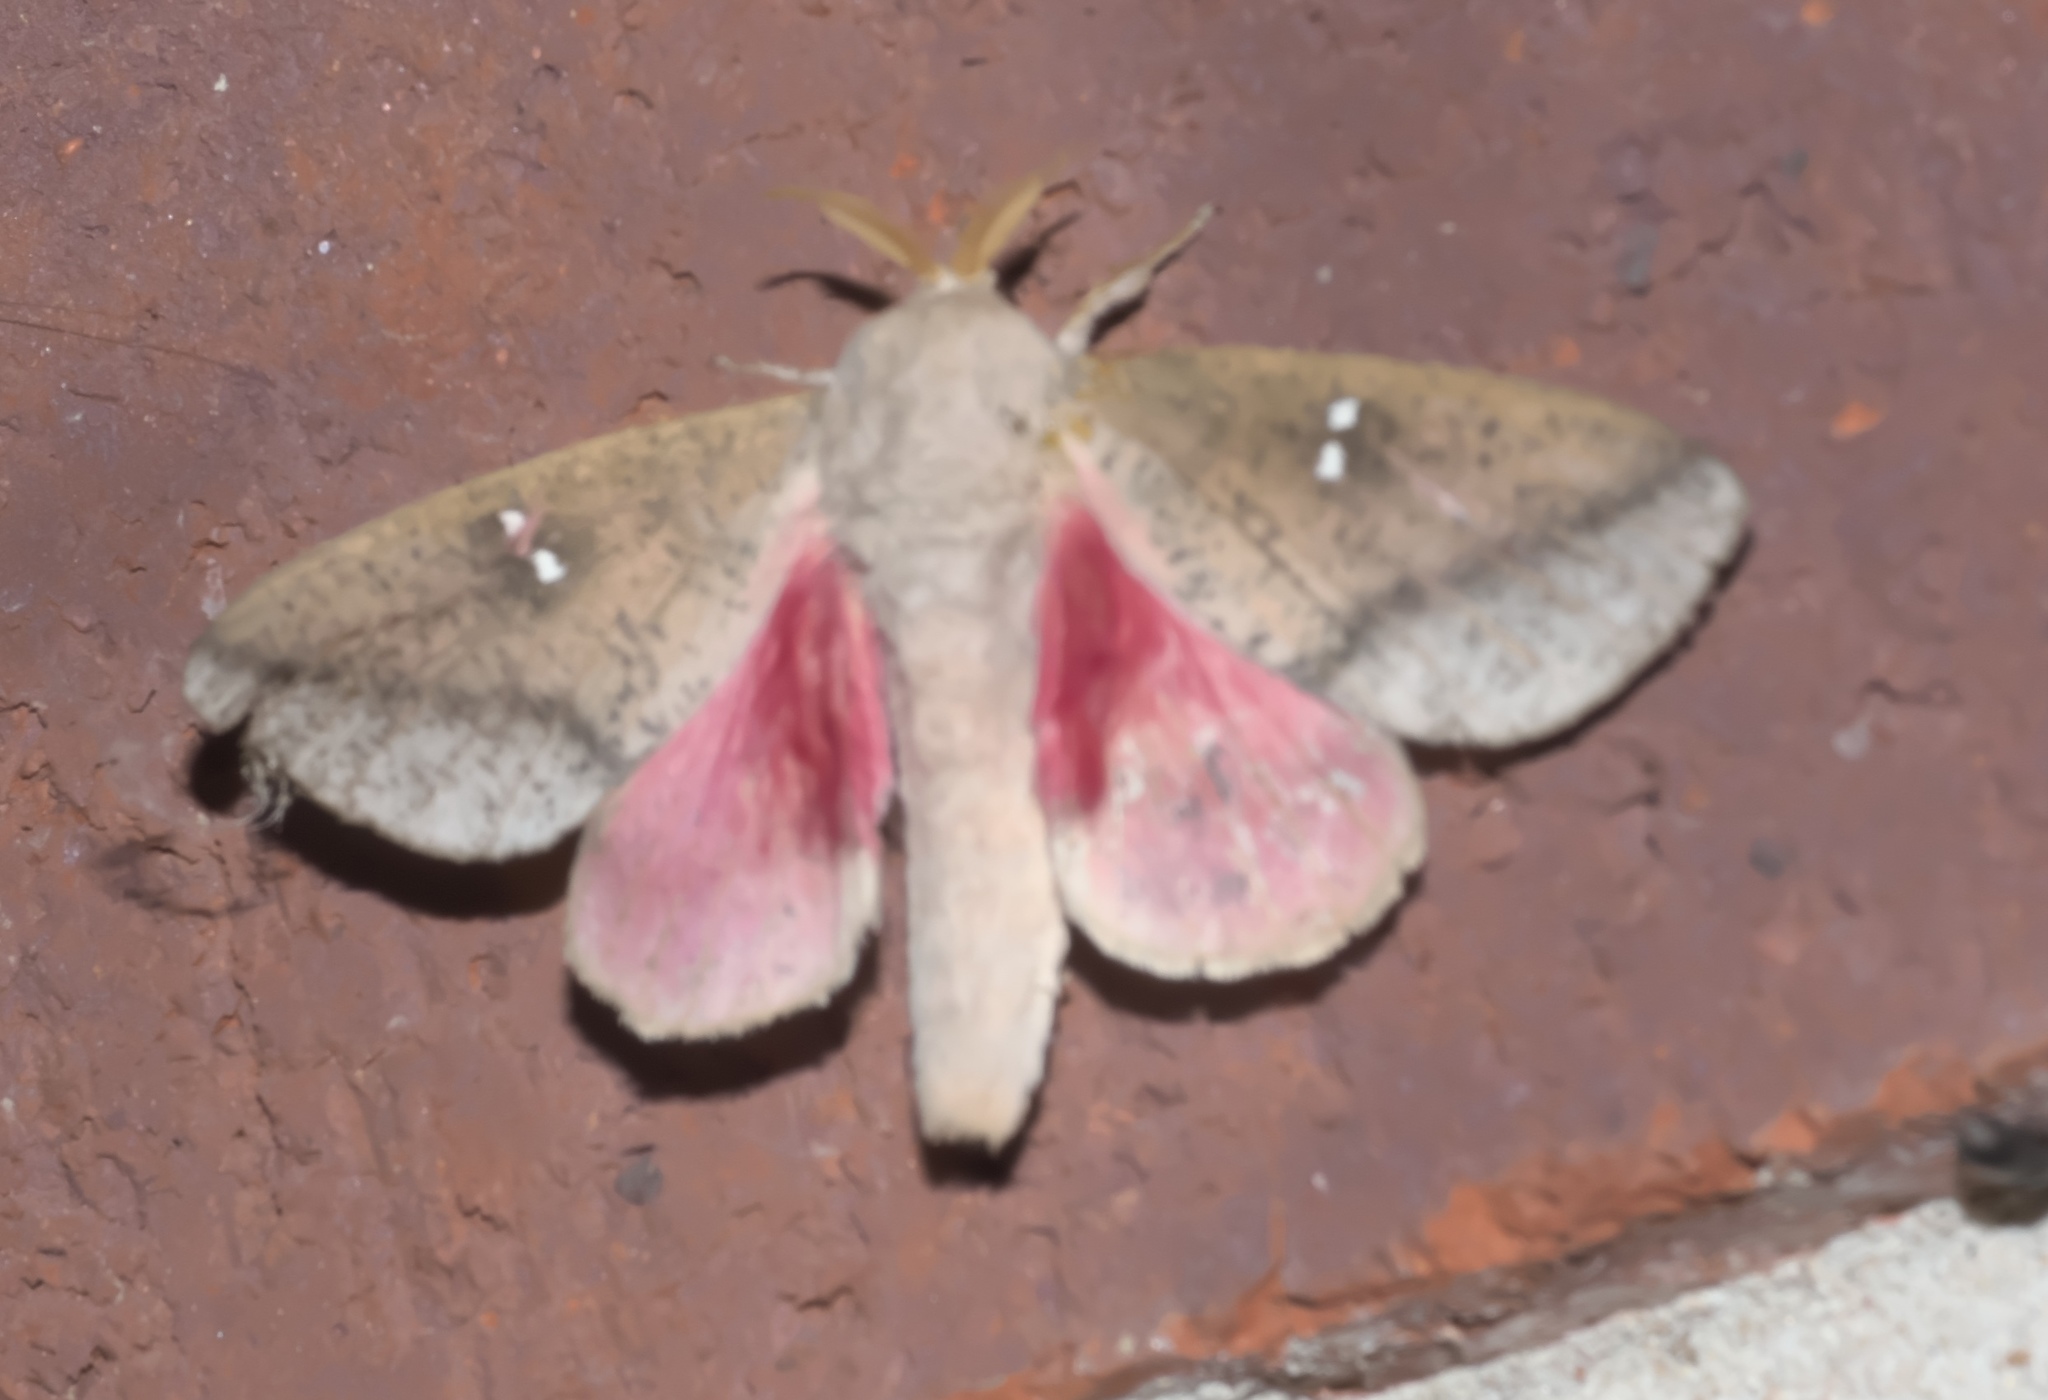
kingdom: Animalia
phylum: Arthropoda
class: Insecta
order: Lepidoptera
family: Saturniidae
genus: Syssphinx
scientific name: Syssphinx bicolor
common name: Honey locust moth
